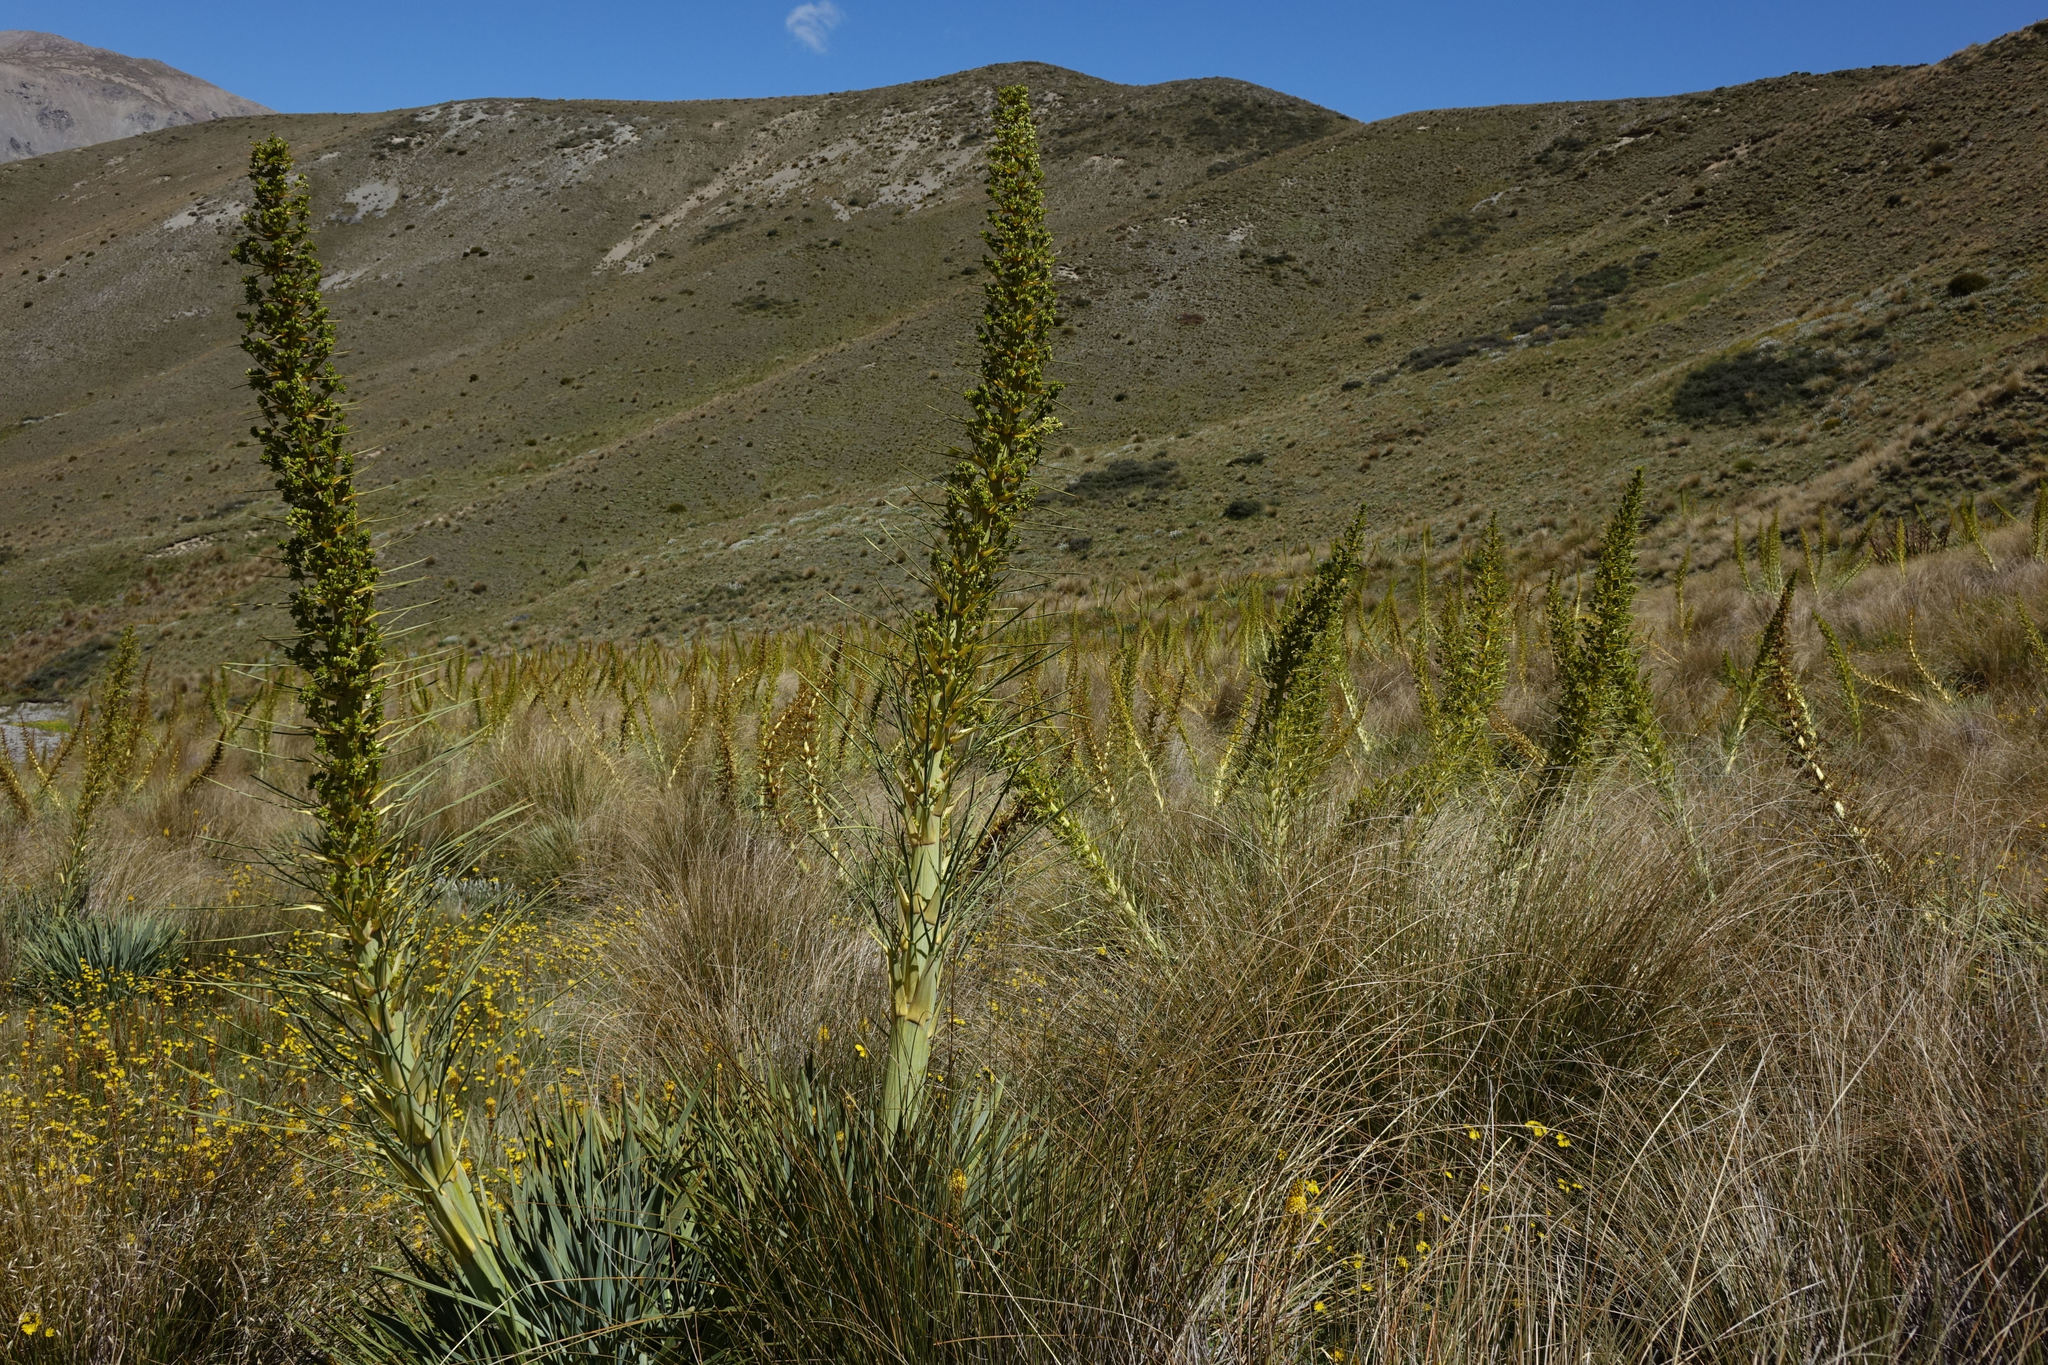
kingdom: Plantae
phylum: Tracheophyta
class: Magnoliopsida
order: Apiales
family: Apiaceae
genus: Aciphylla
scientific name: Aciphylla scott-thomsonii
